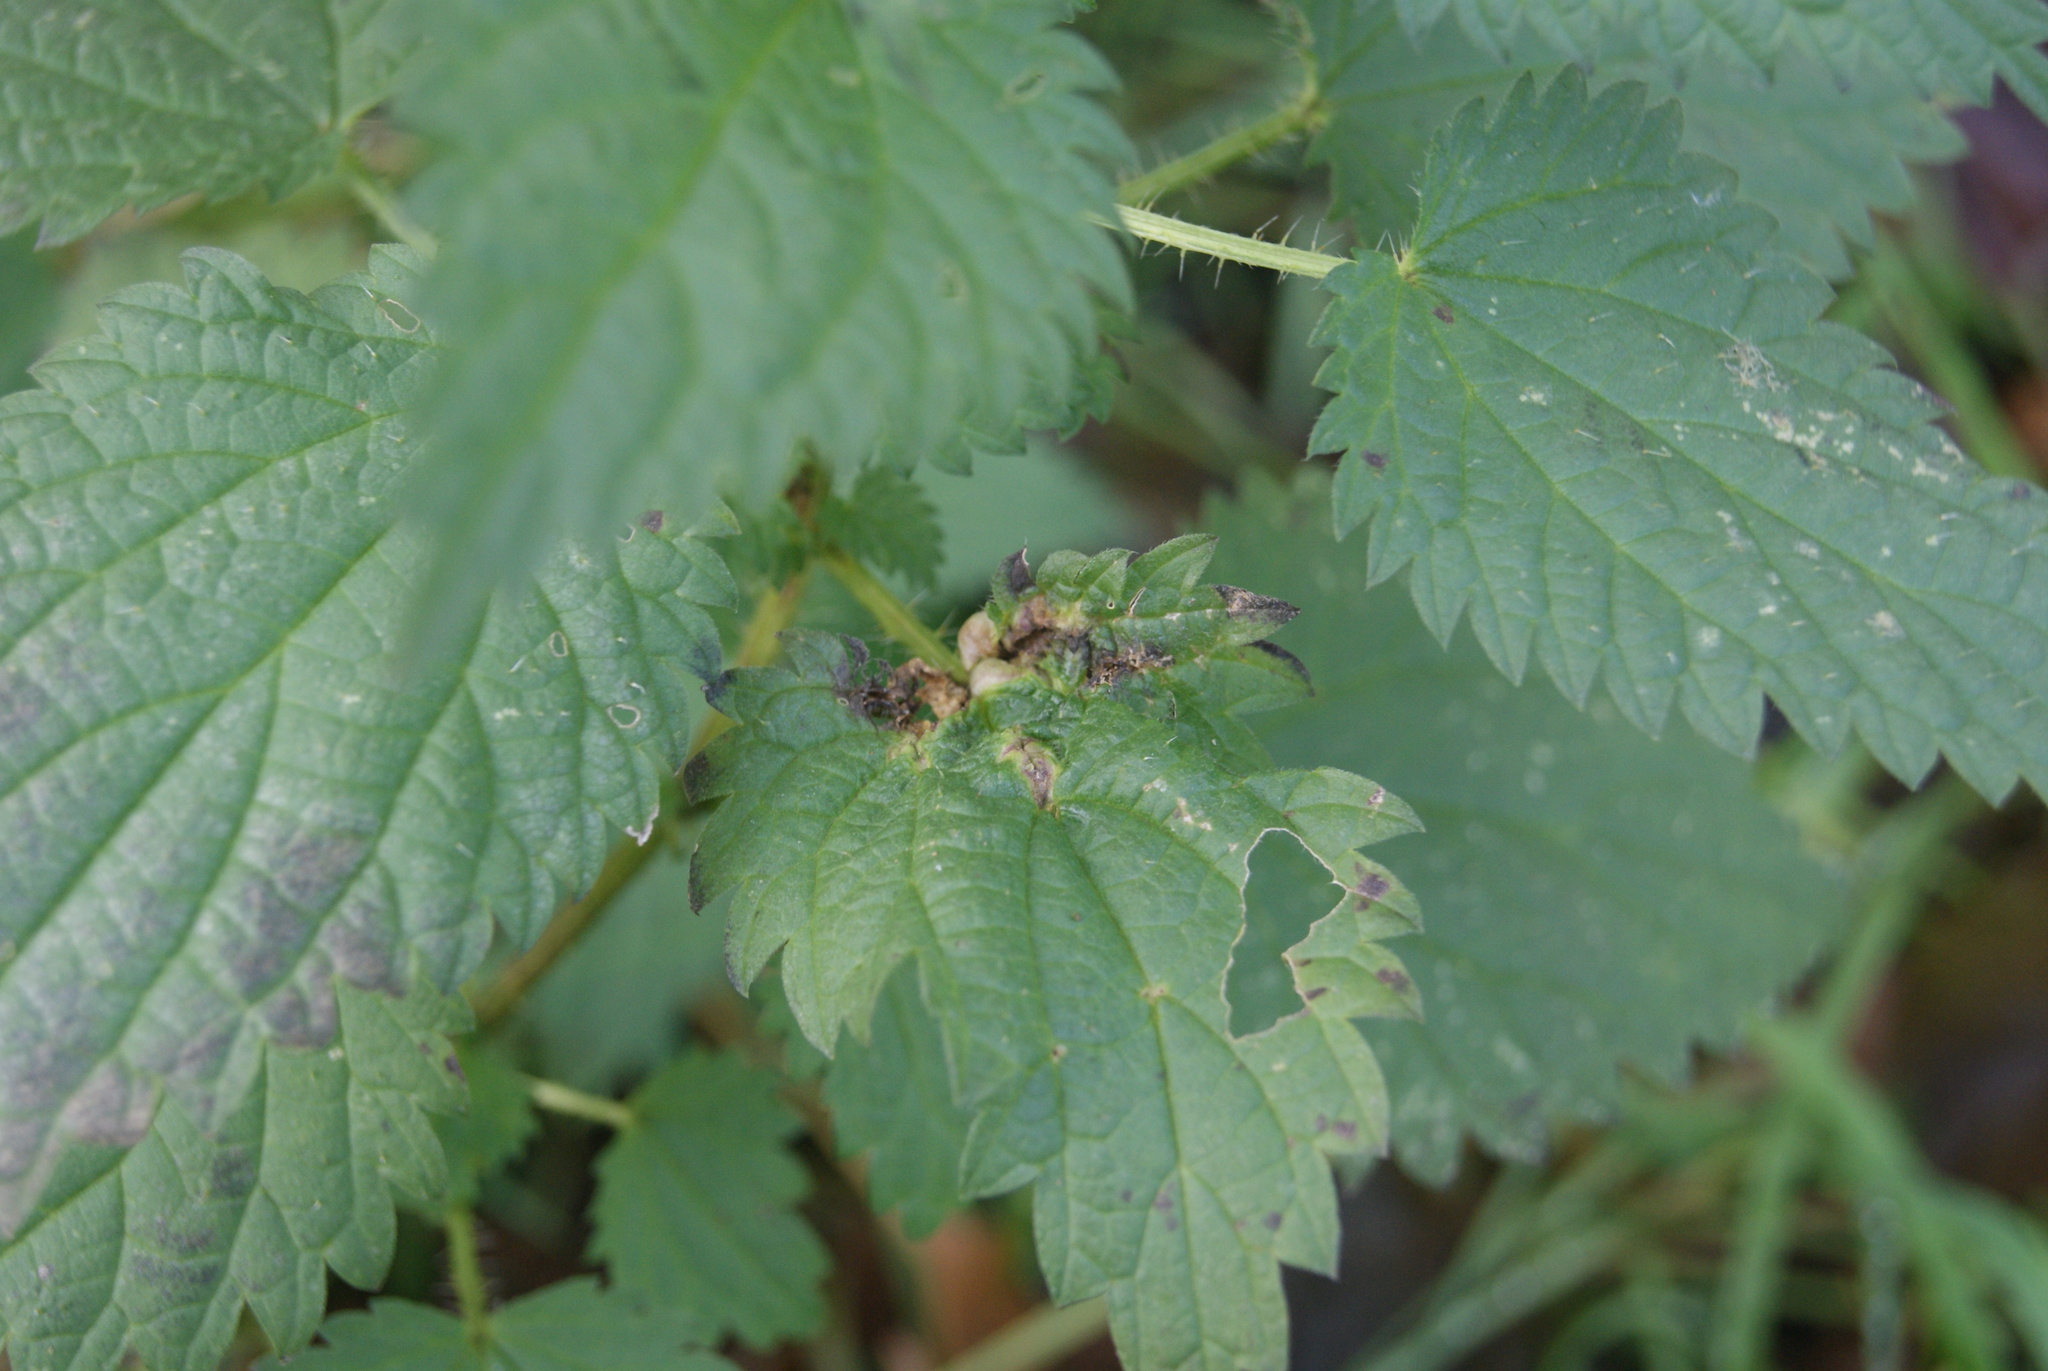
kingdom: Plantae
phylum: Tracheophyta
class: Magnoliopsida
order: Rosales
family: Urticaceae
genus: Urtica
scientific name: Urtica dioica
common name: Common nettle
